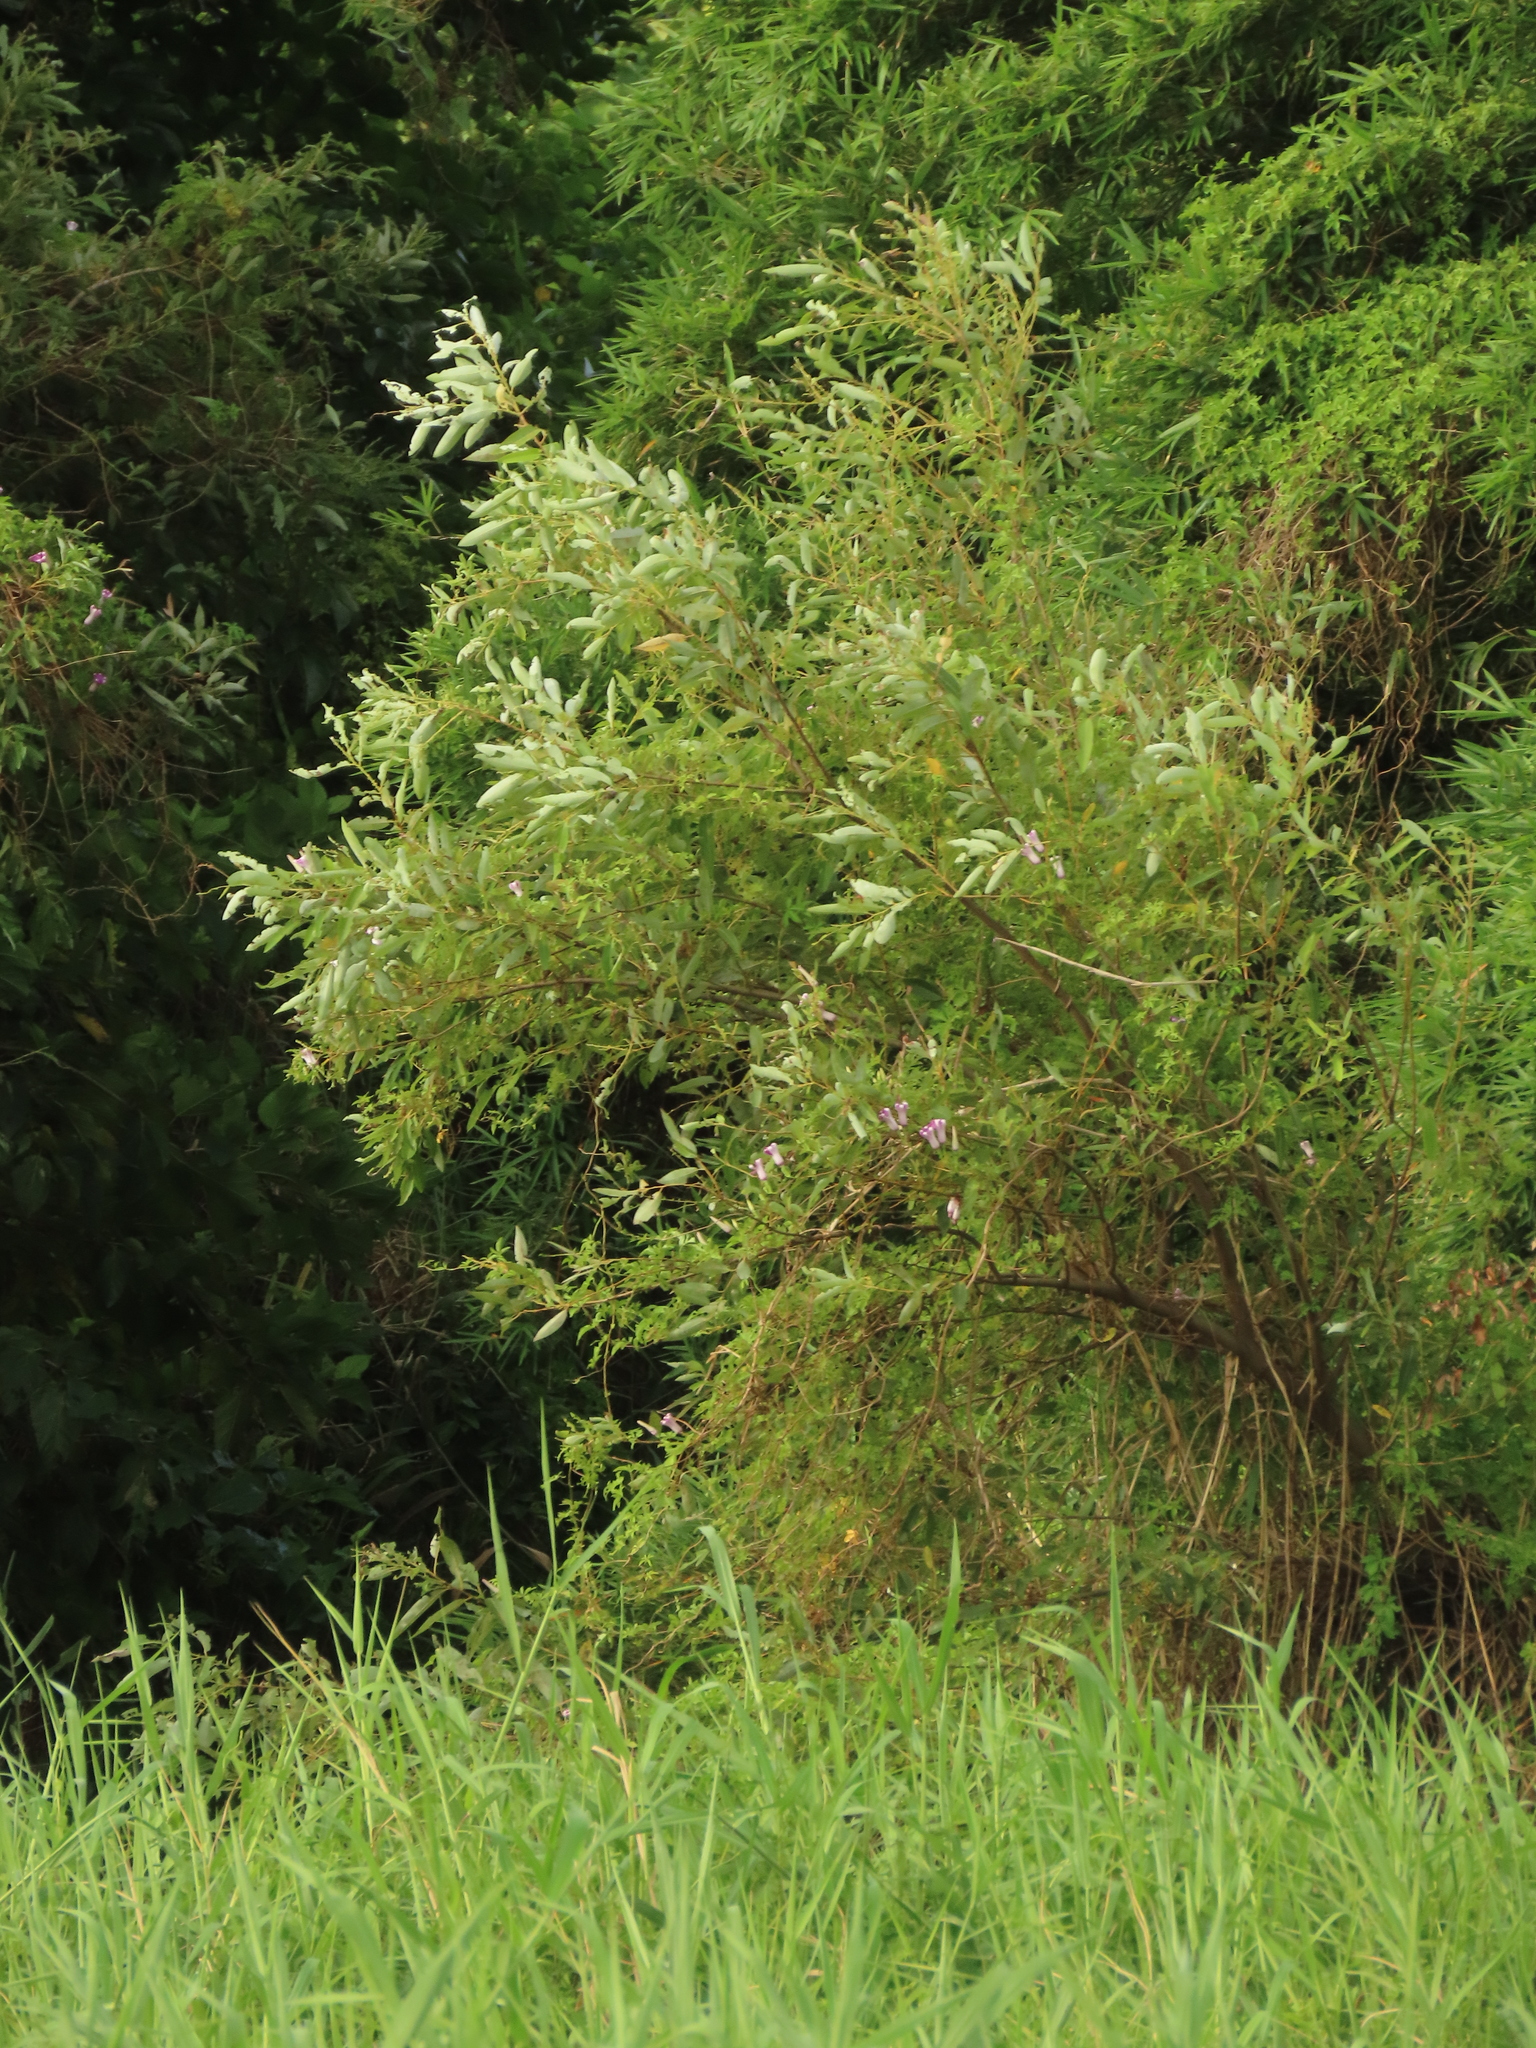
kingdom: Plantae
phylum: Tracheophyta
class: Magnoliopsida
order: Malpighiales
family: Salicaceae
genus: Salix
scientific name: Salix mesnyi
